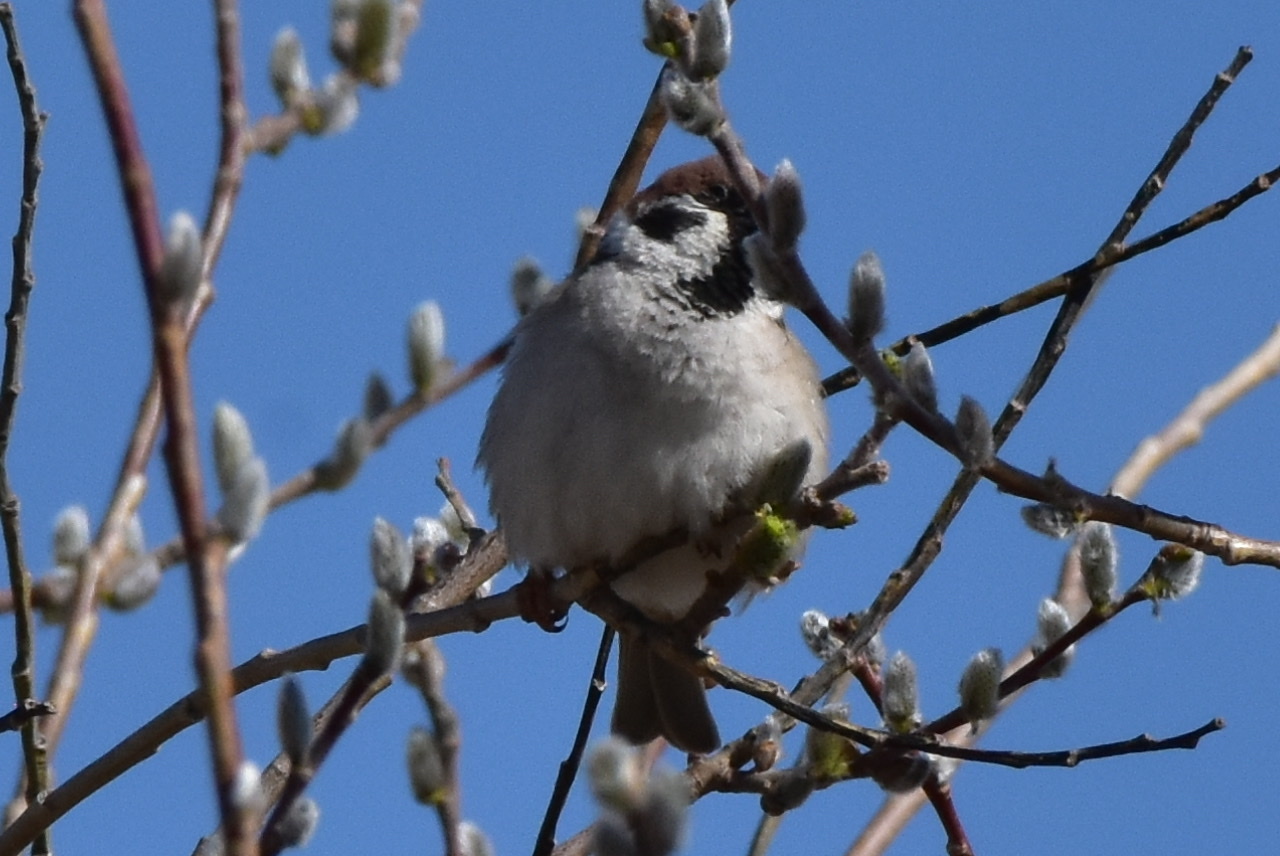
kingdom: Animalia
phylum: Chordata
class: Aves
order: Passeriformes
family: Passeridae
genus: Passer
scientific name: Passer montanus
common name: Eurasian tree sparrow
